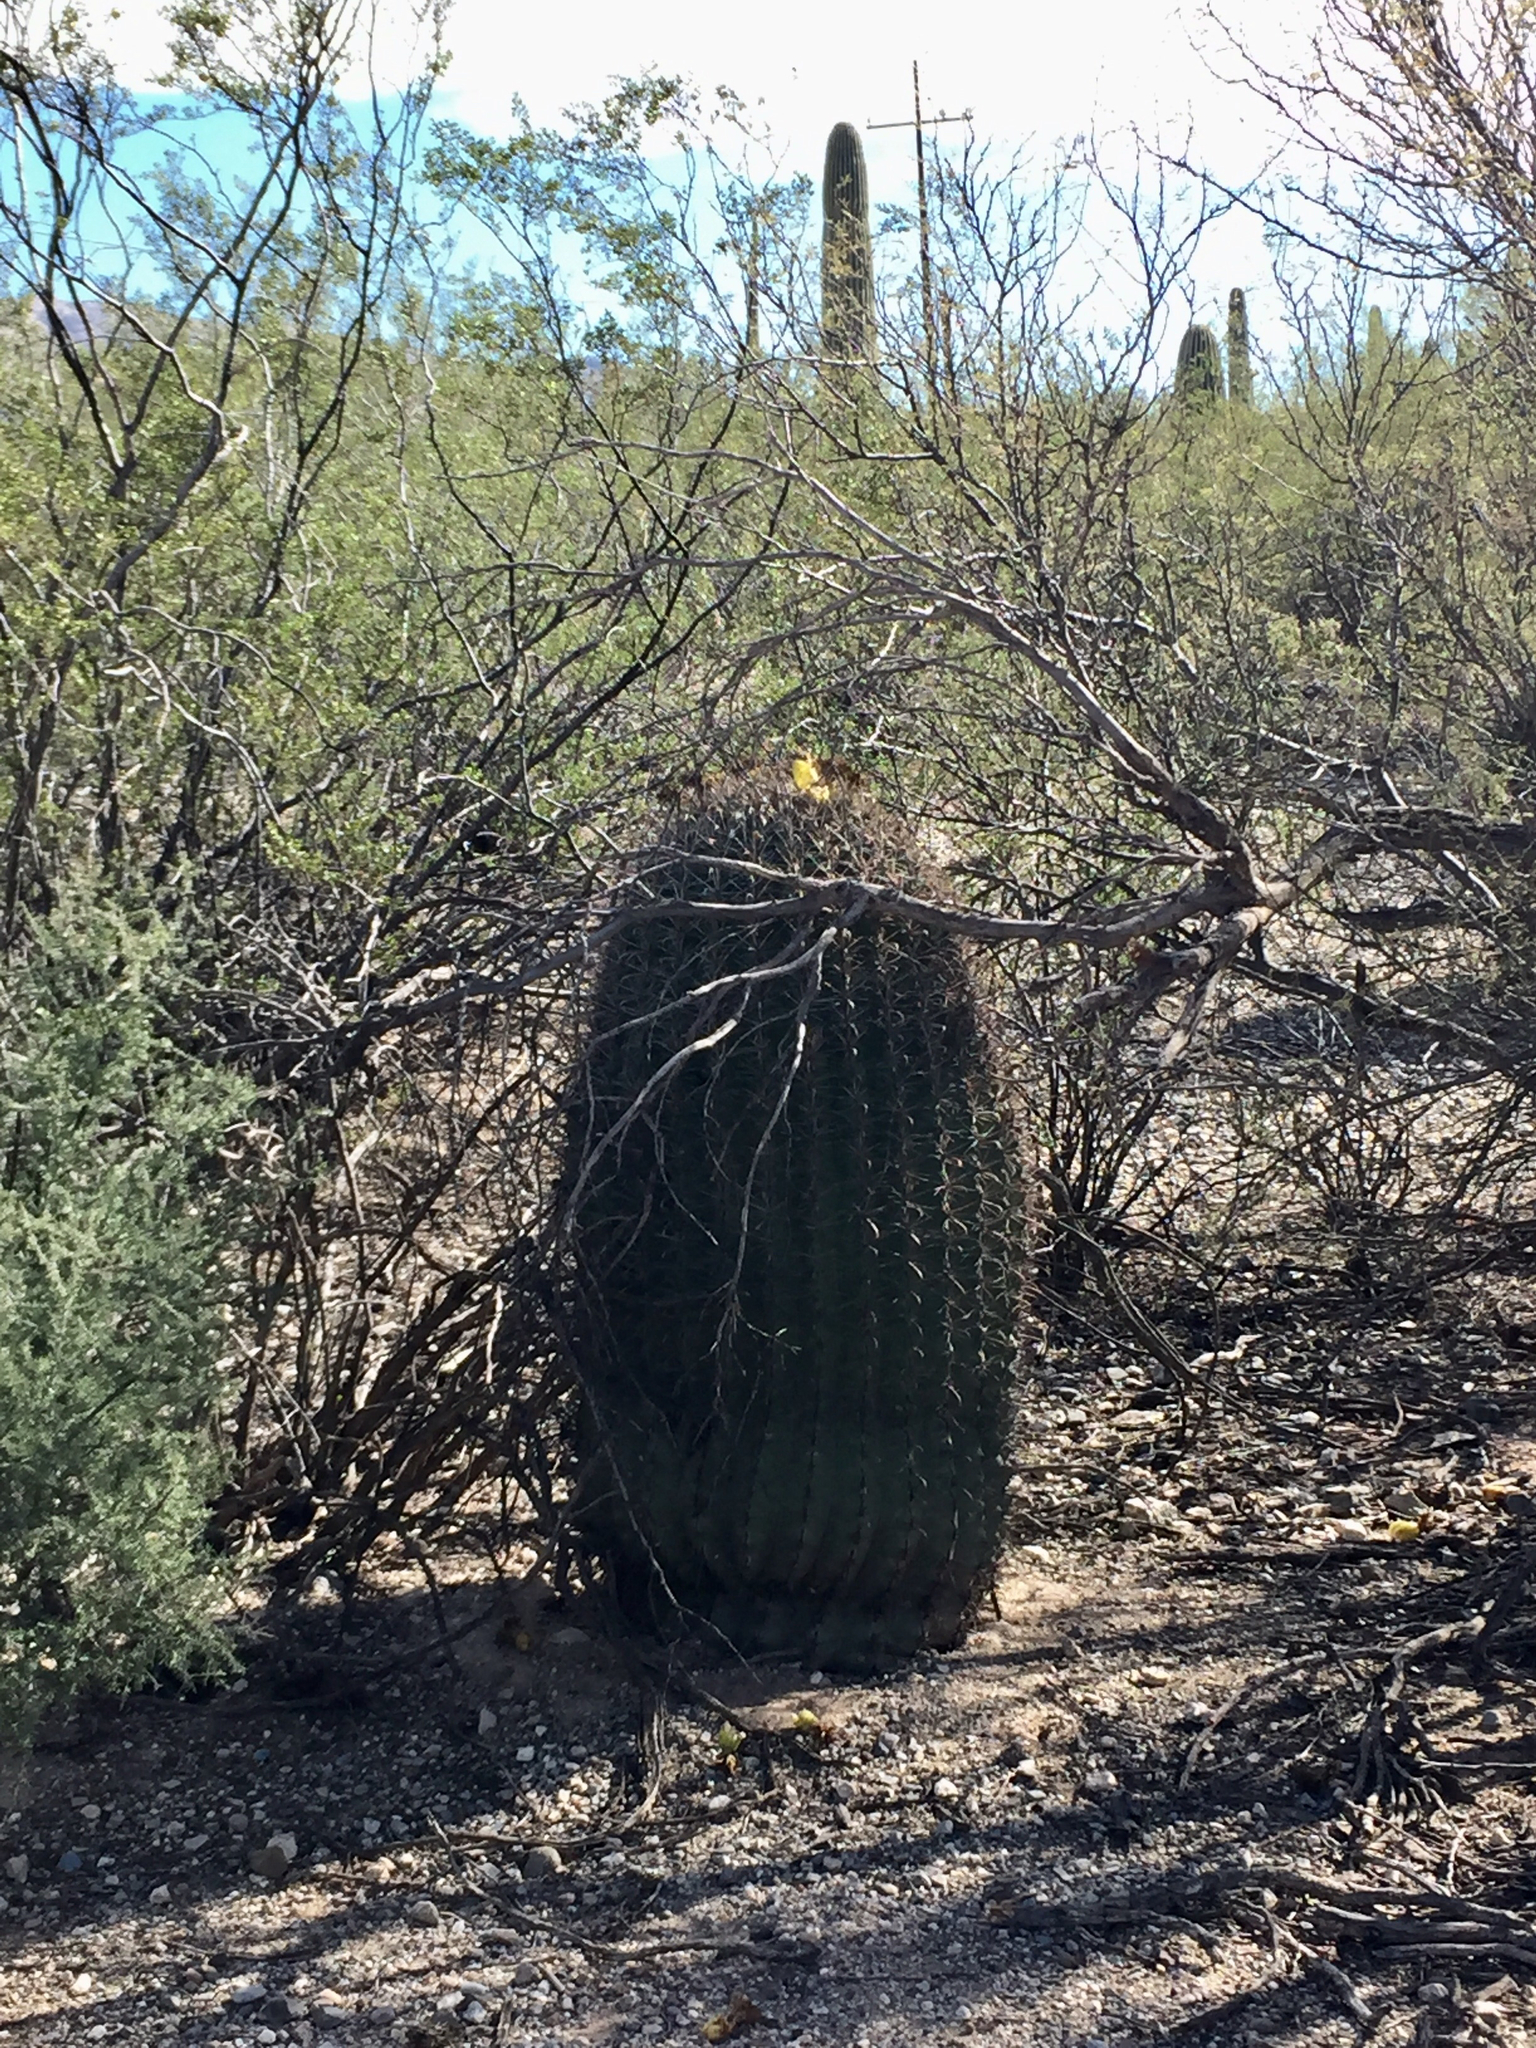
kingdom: Plantae
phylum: Tracheophyta
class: Magnoliopsida
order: Caryophyllales
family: Cactaceae
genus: Ferocactus
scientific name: Ferocactus wislizeni
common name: Candy barrel cactus
